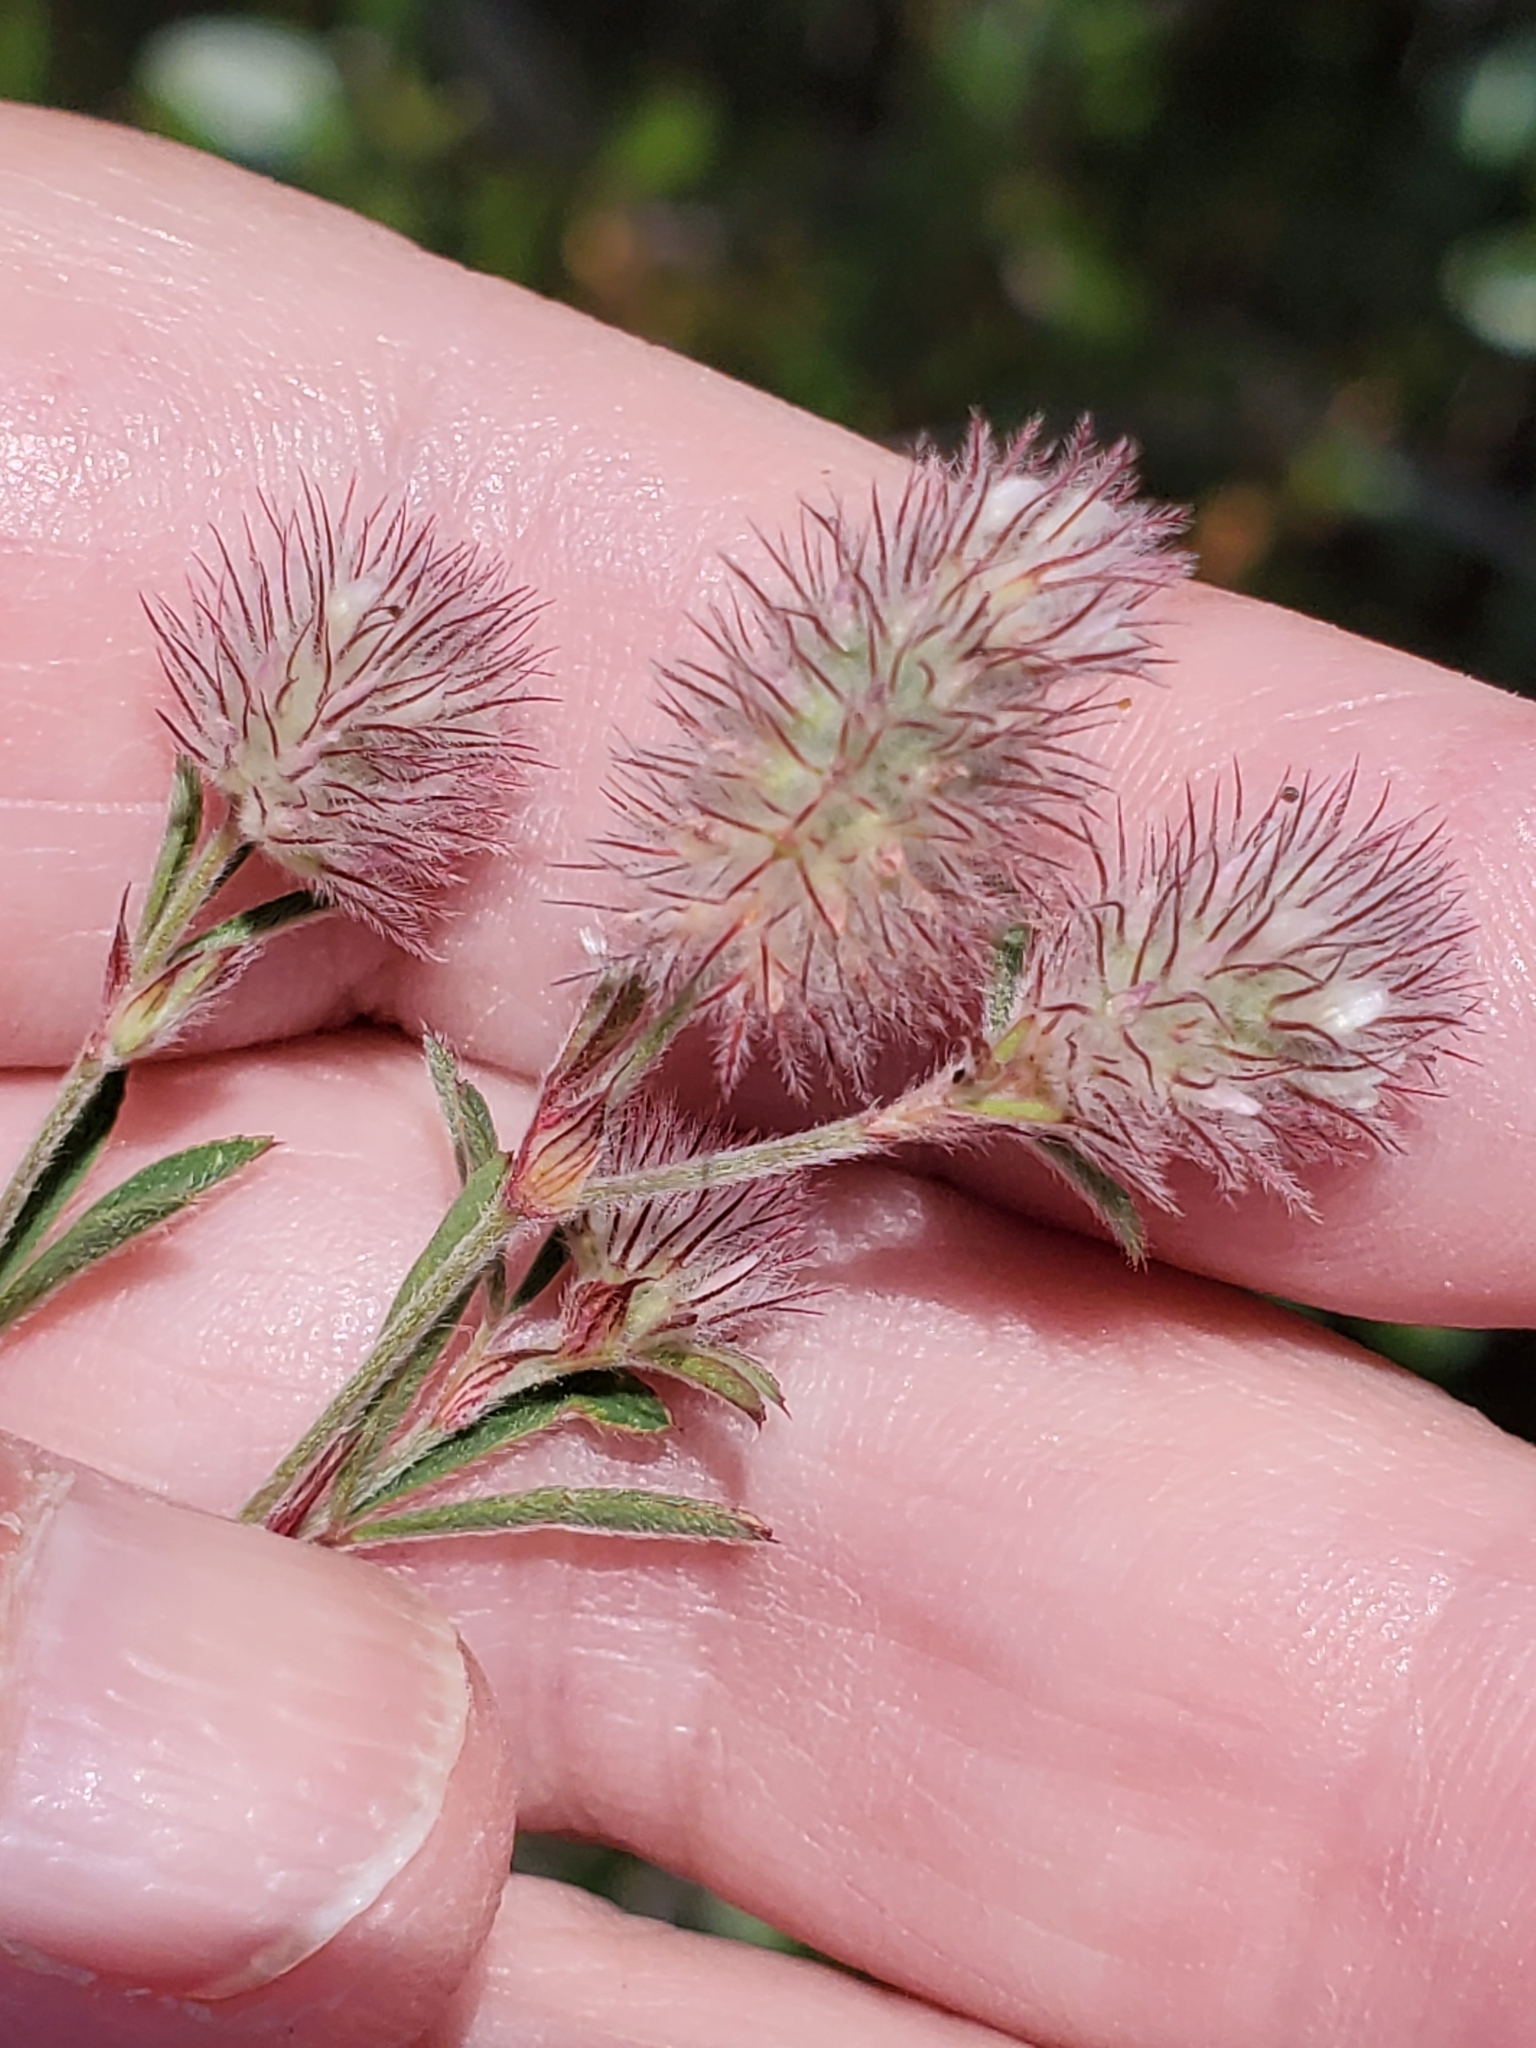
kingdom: Plantae
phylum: Tracheophyta
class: Magnoliopsida
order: Fabales
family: Fabaceae
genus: Trifolium
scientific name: Trifolium arvense
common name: Hare's-foot clover
